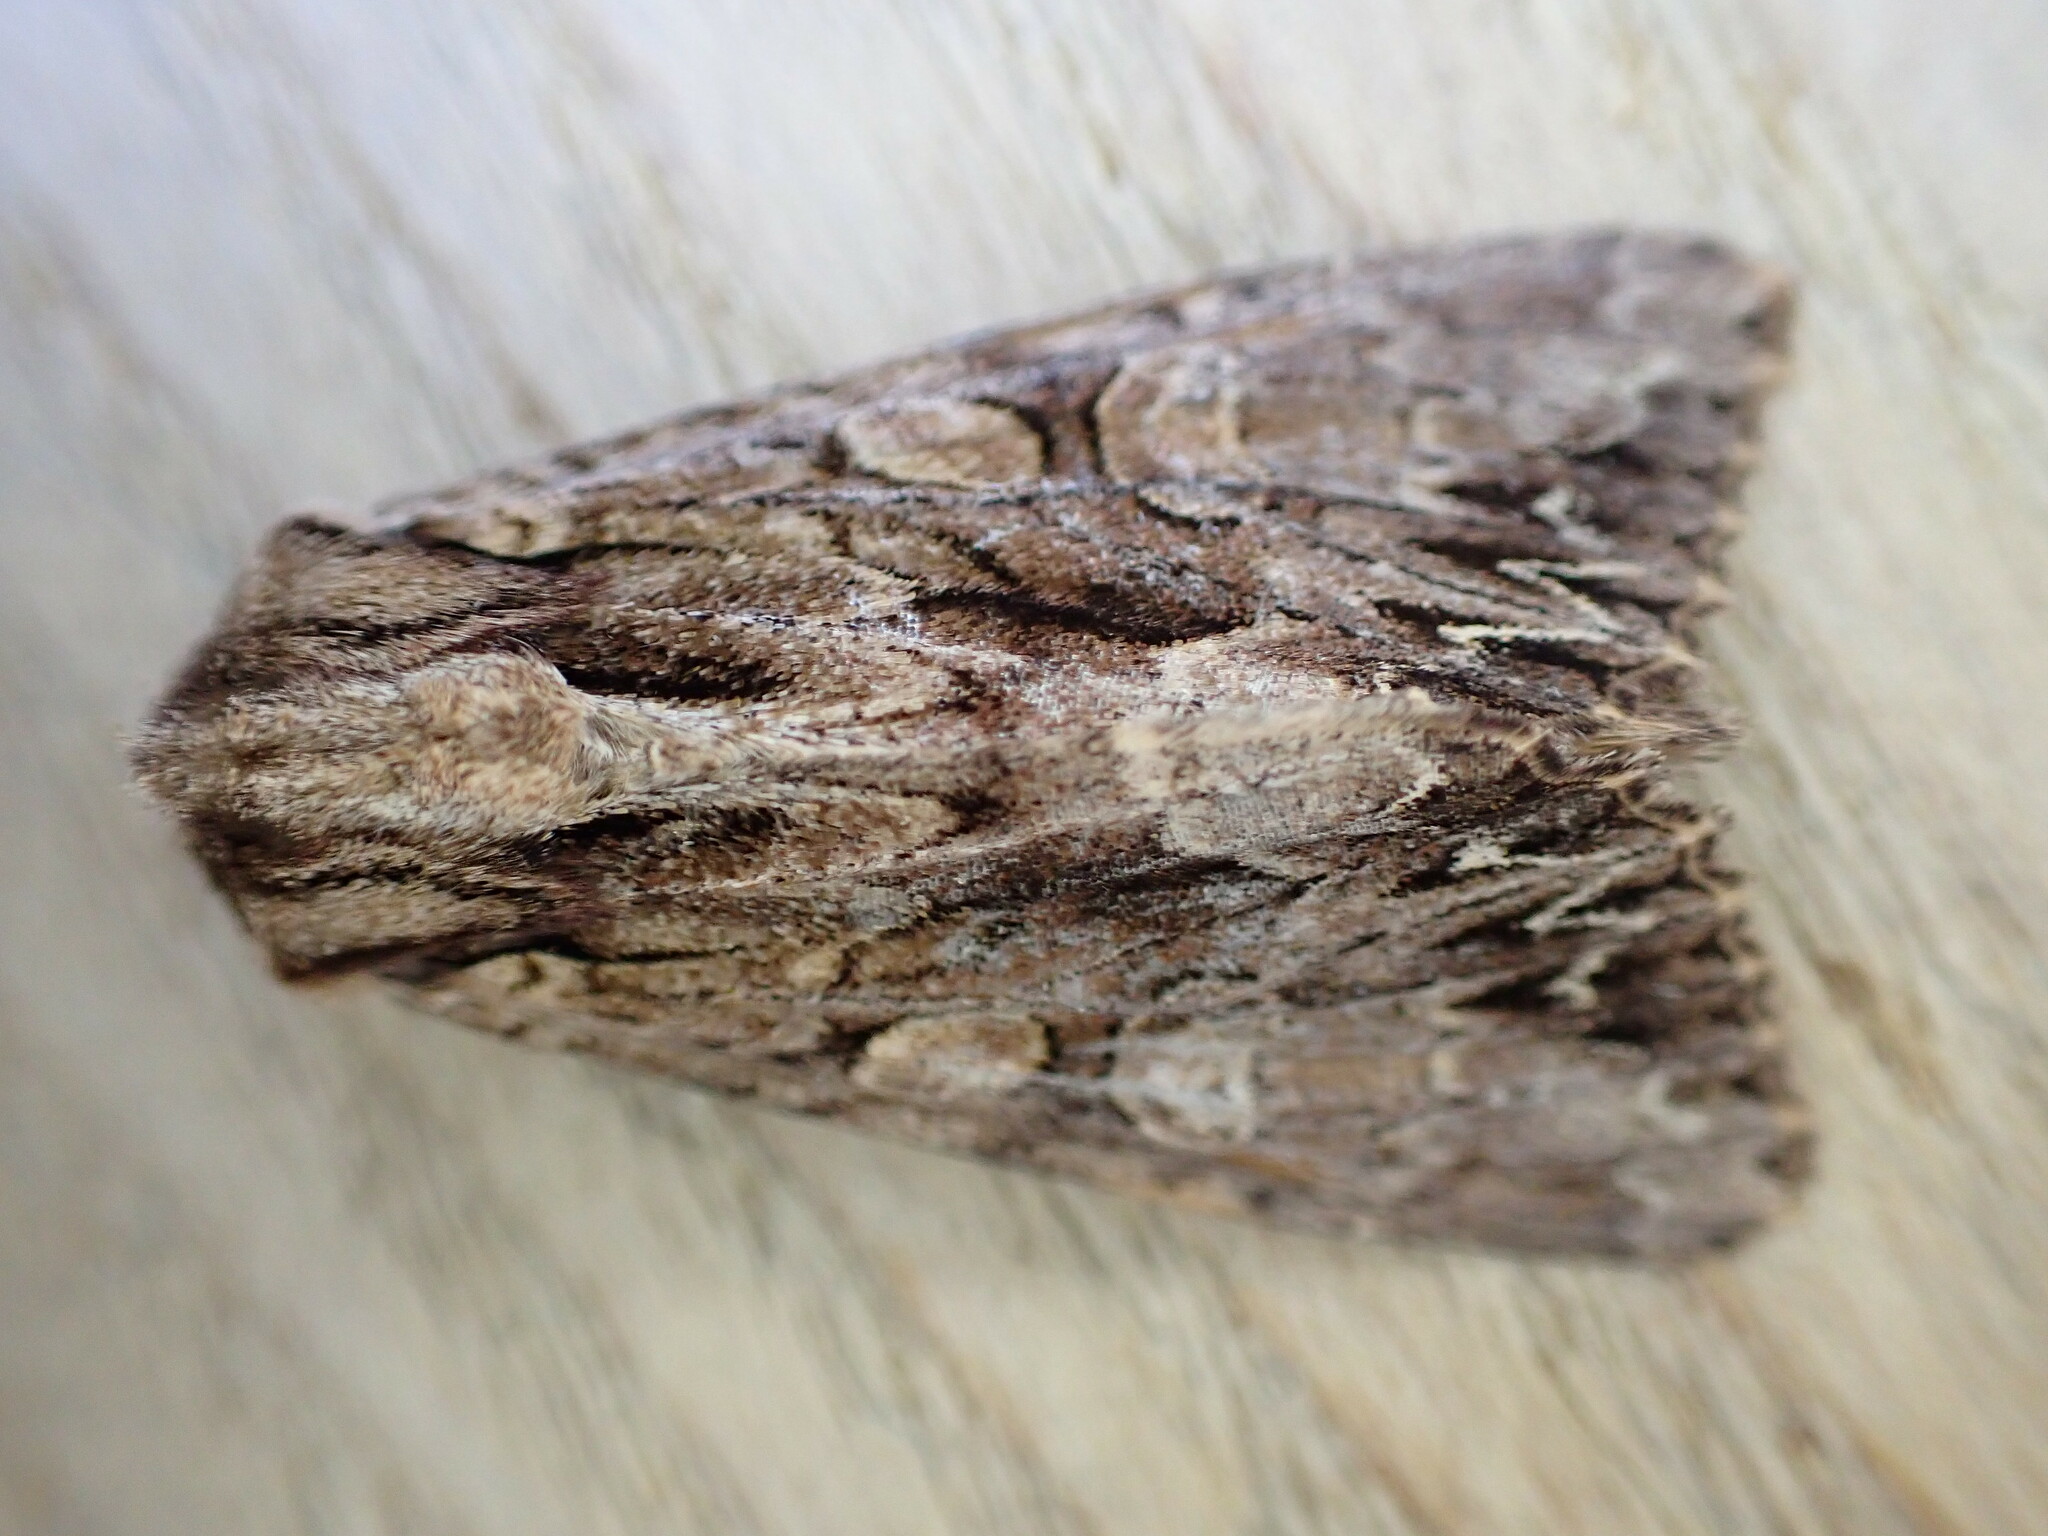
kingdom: Animalia
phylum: Arthropoda
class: Insecta
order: Lepidoptera
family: Noctuidae
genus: Apamea
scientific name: Apamea monoglypha
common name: Dark arches
